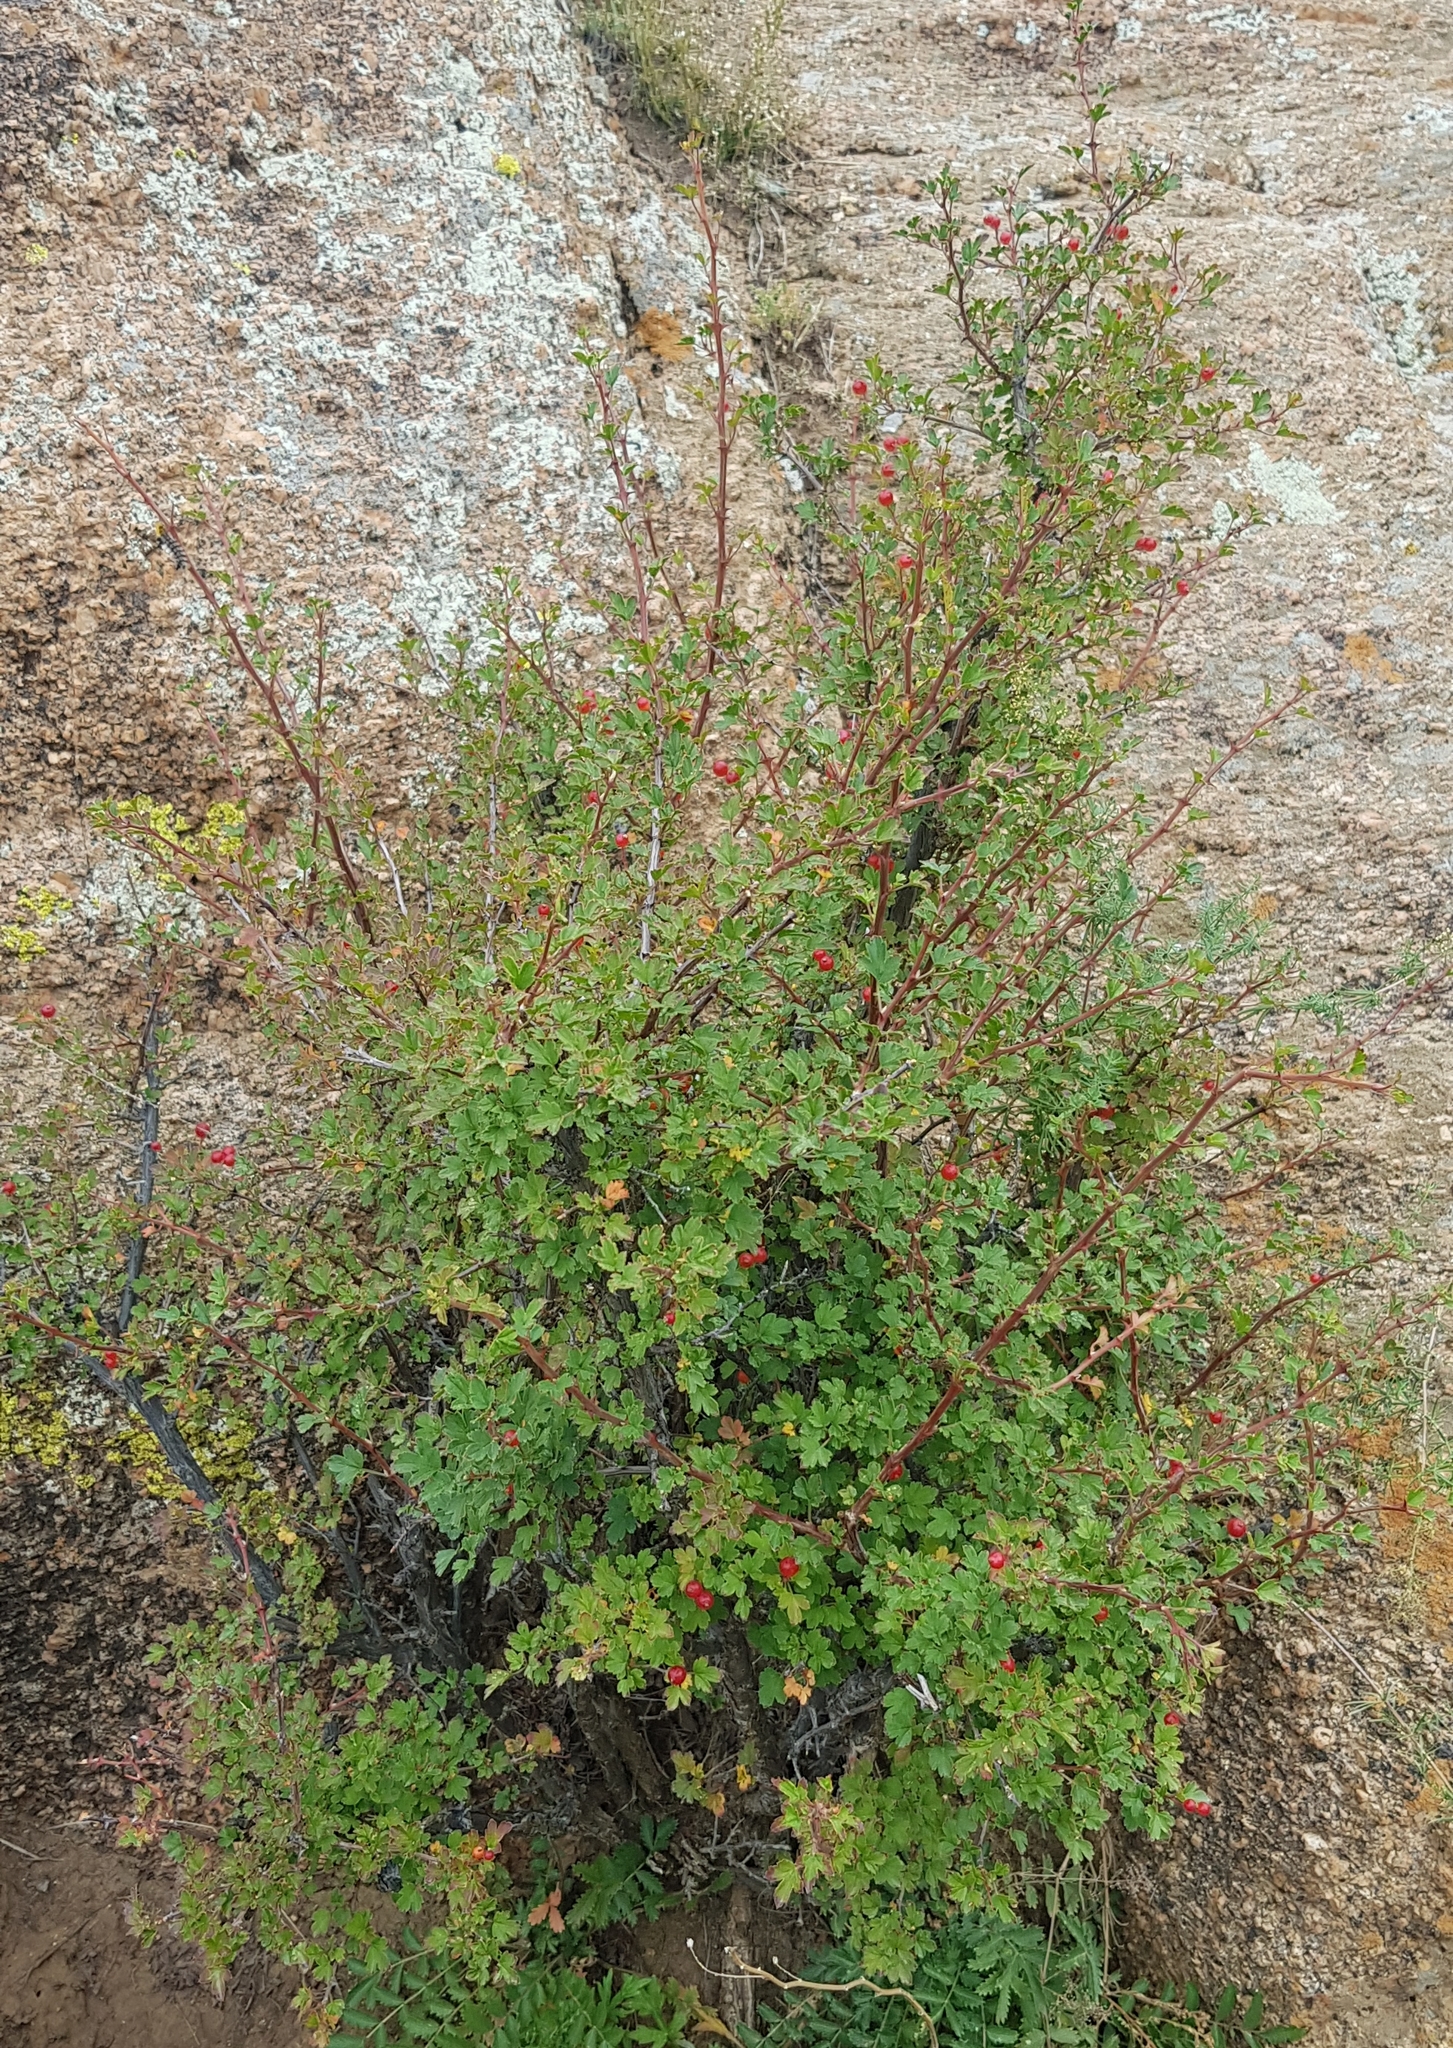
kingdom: Plantae
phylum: Tracheophyta
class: Magnoliopsida
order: Saxifragales
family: Grossulariaceae
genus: Ribes
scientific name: Ribes diacanthum
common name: Siberian currant
